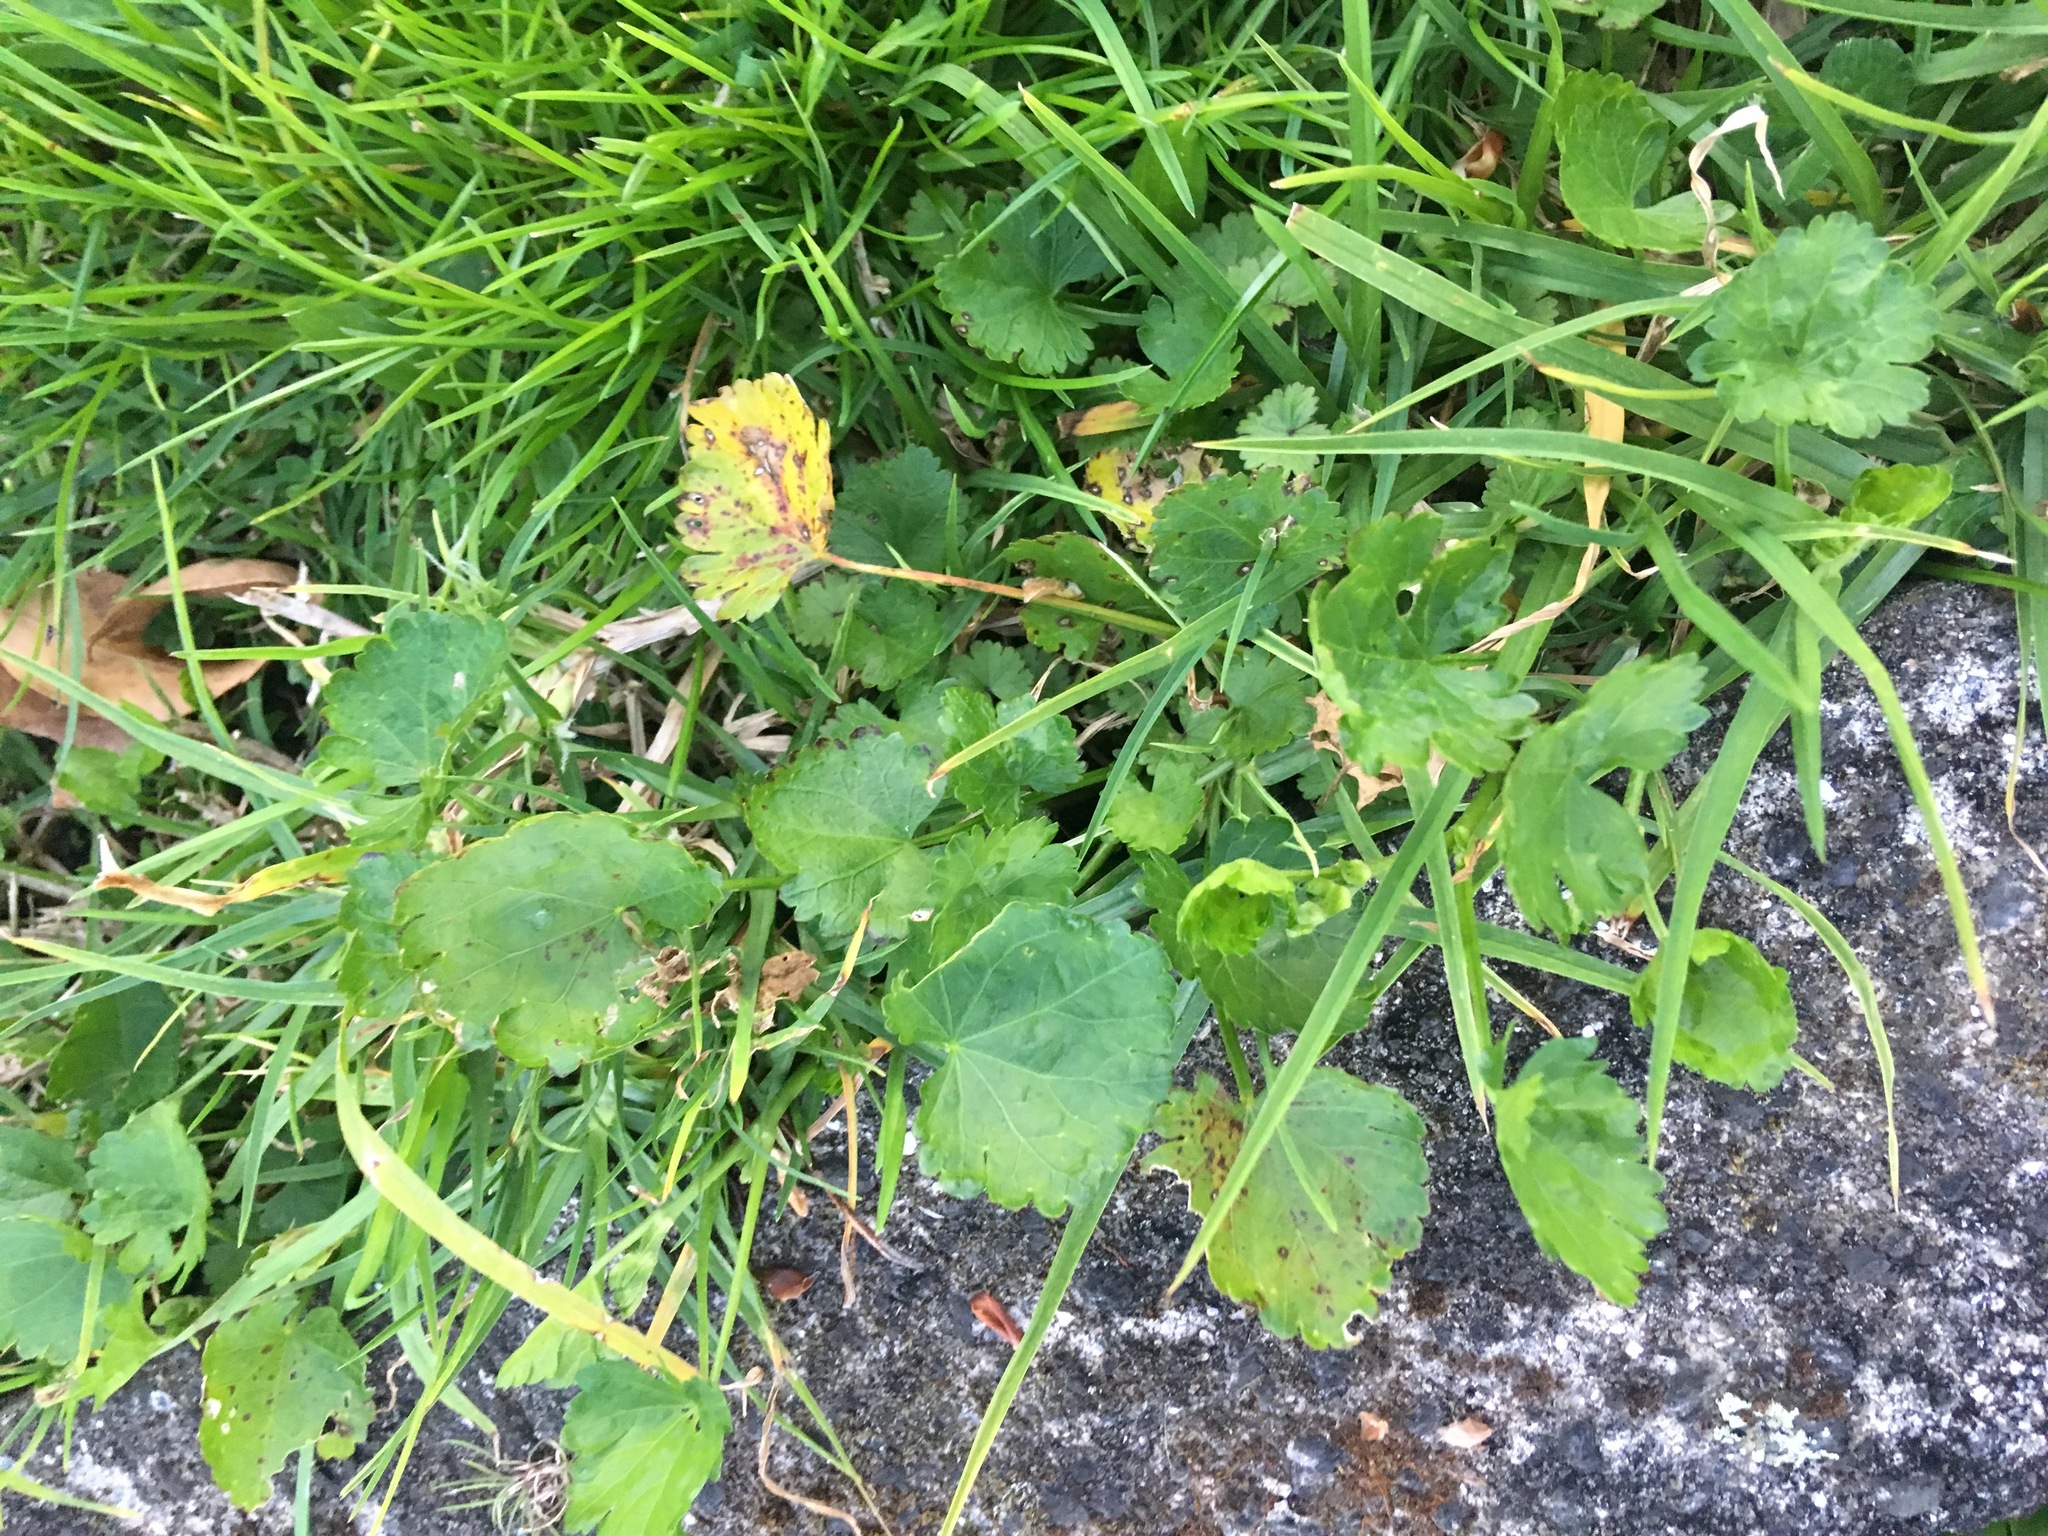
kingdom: Plantae
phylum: Tracheophyta
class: Magnoliopsida
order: Malvales
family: Malvaceae
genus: Modiola
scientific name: Modiola caroliniana
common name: Carolina bristlemallow
